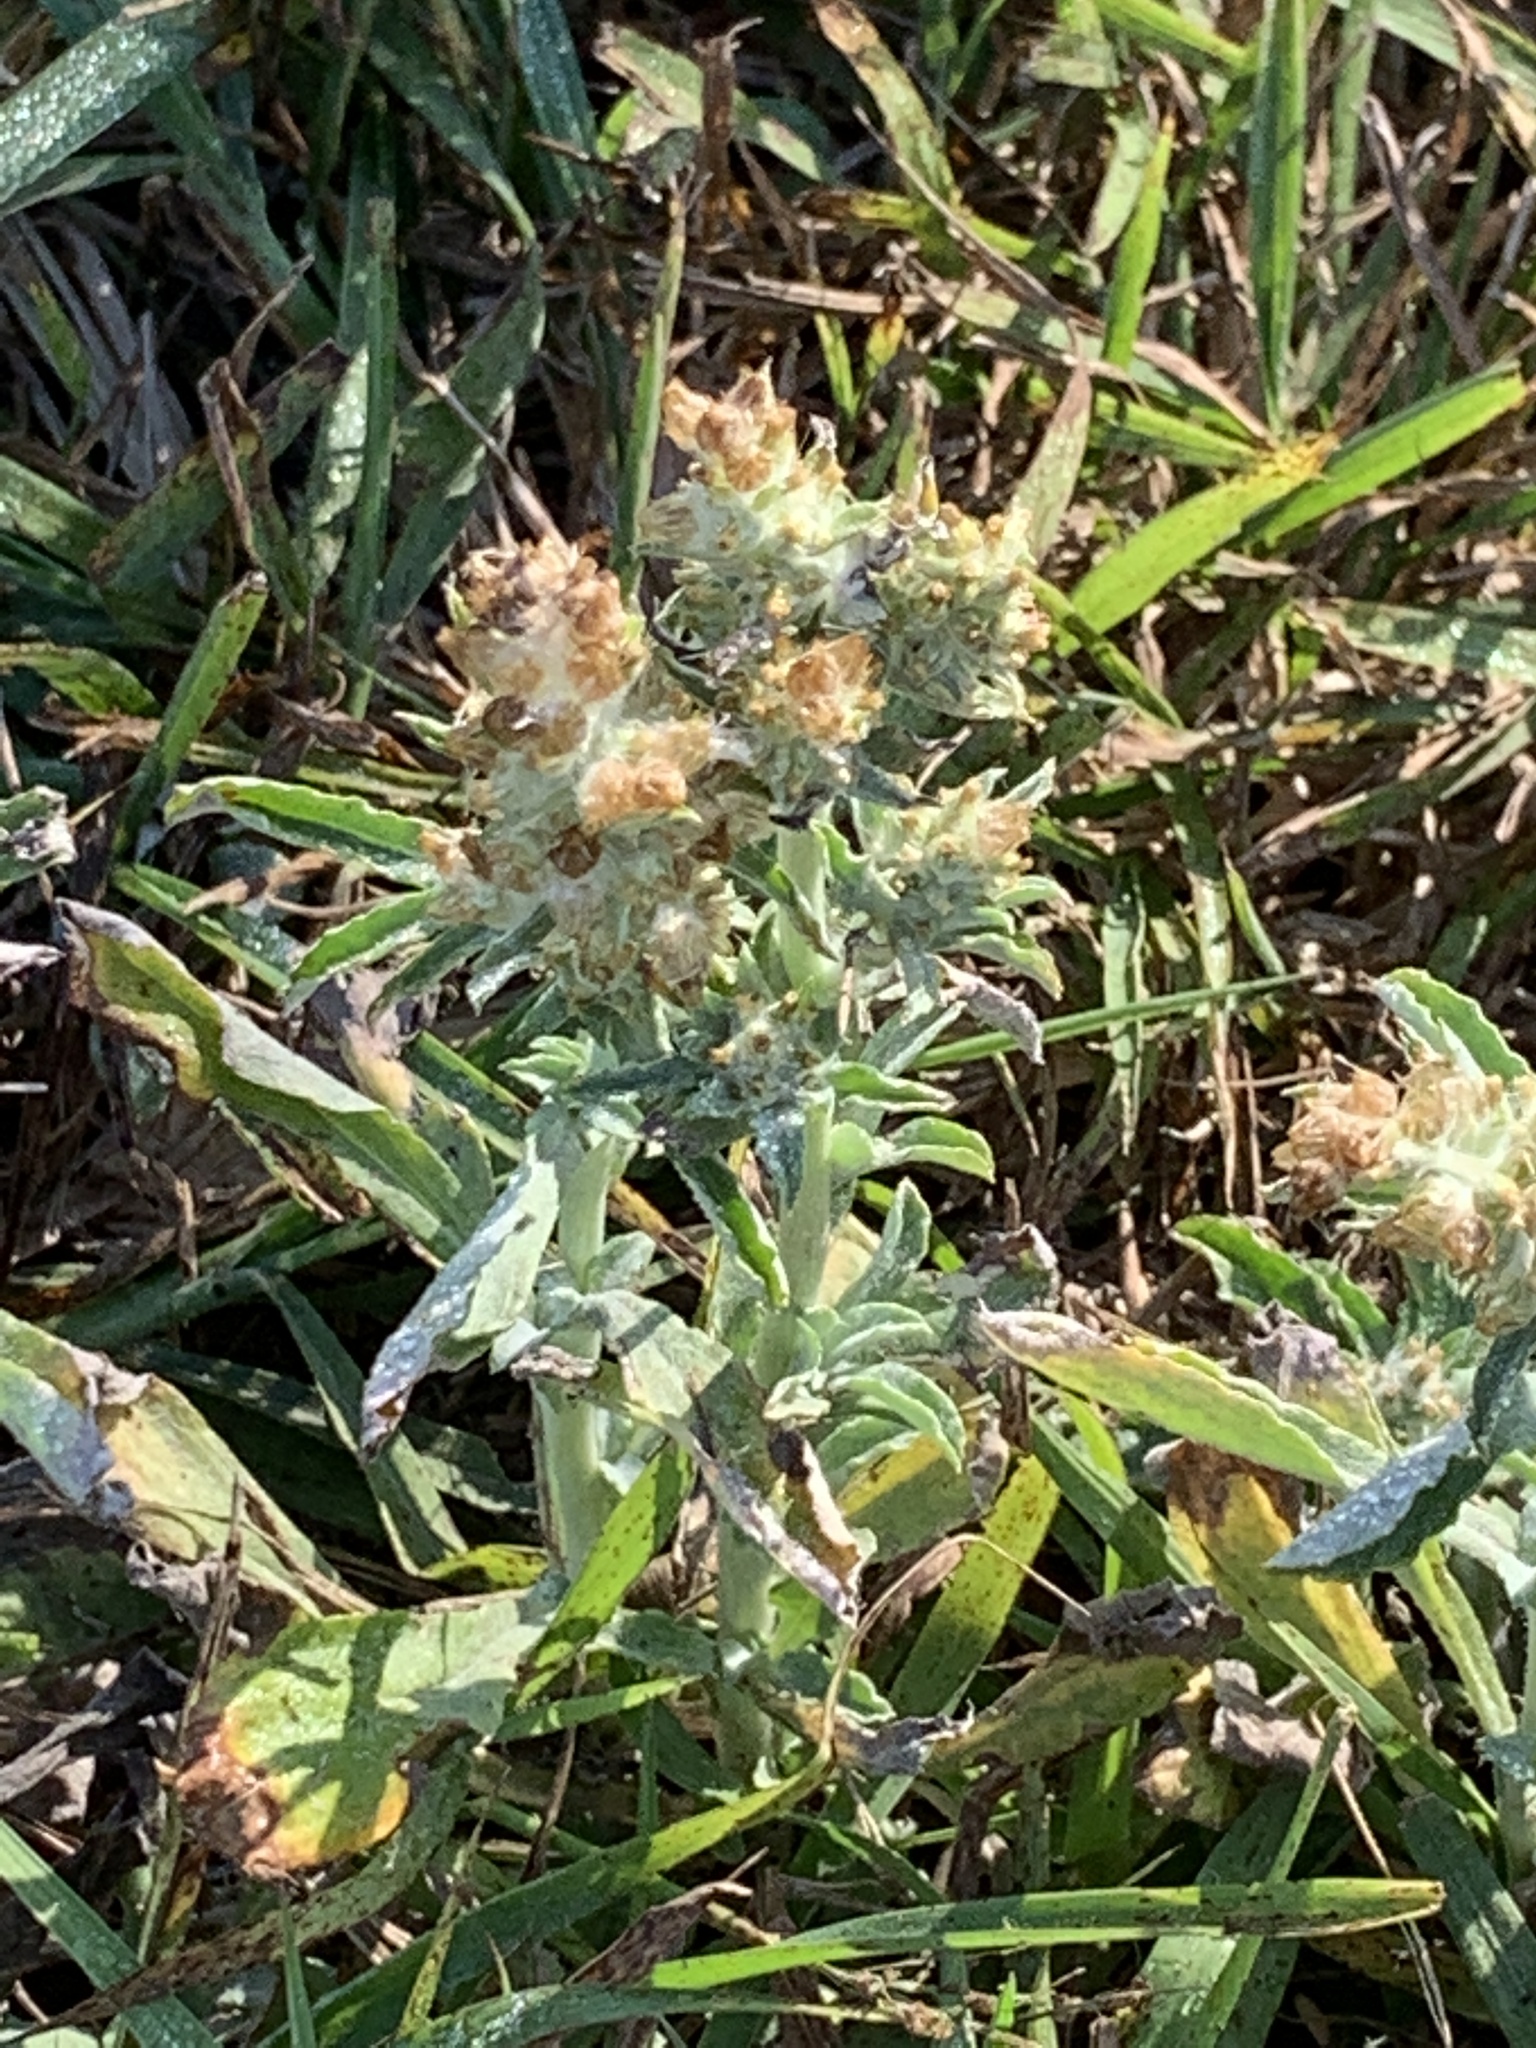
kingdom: Plantae
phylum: Tracheophyta
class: Magnoliopsida
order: Asterales
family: Asteraceae
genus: Gamochaeta
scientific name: Gamochaeta pensylvanica
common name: Pennsylvania everlasting
